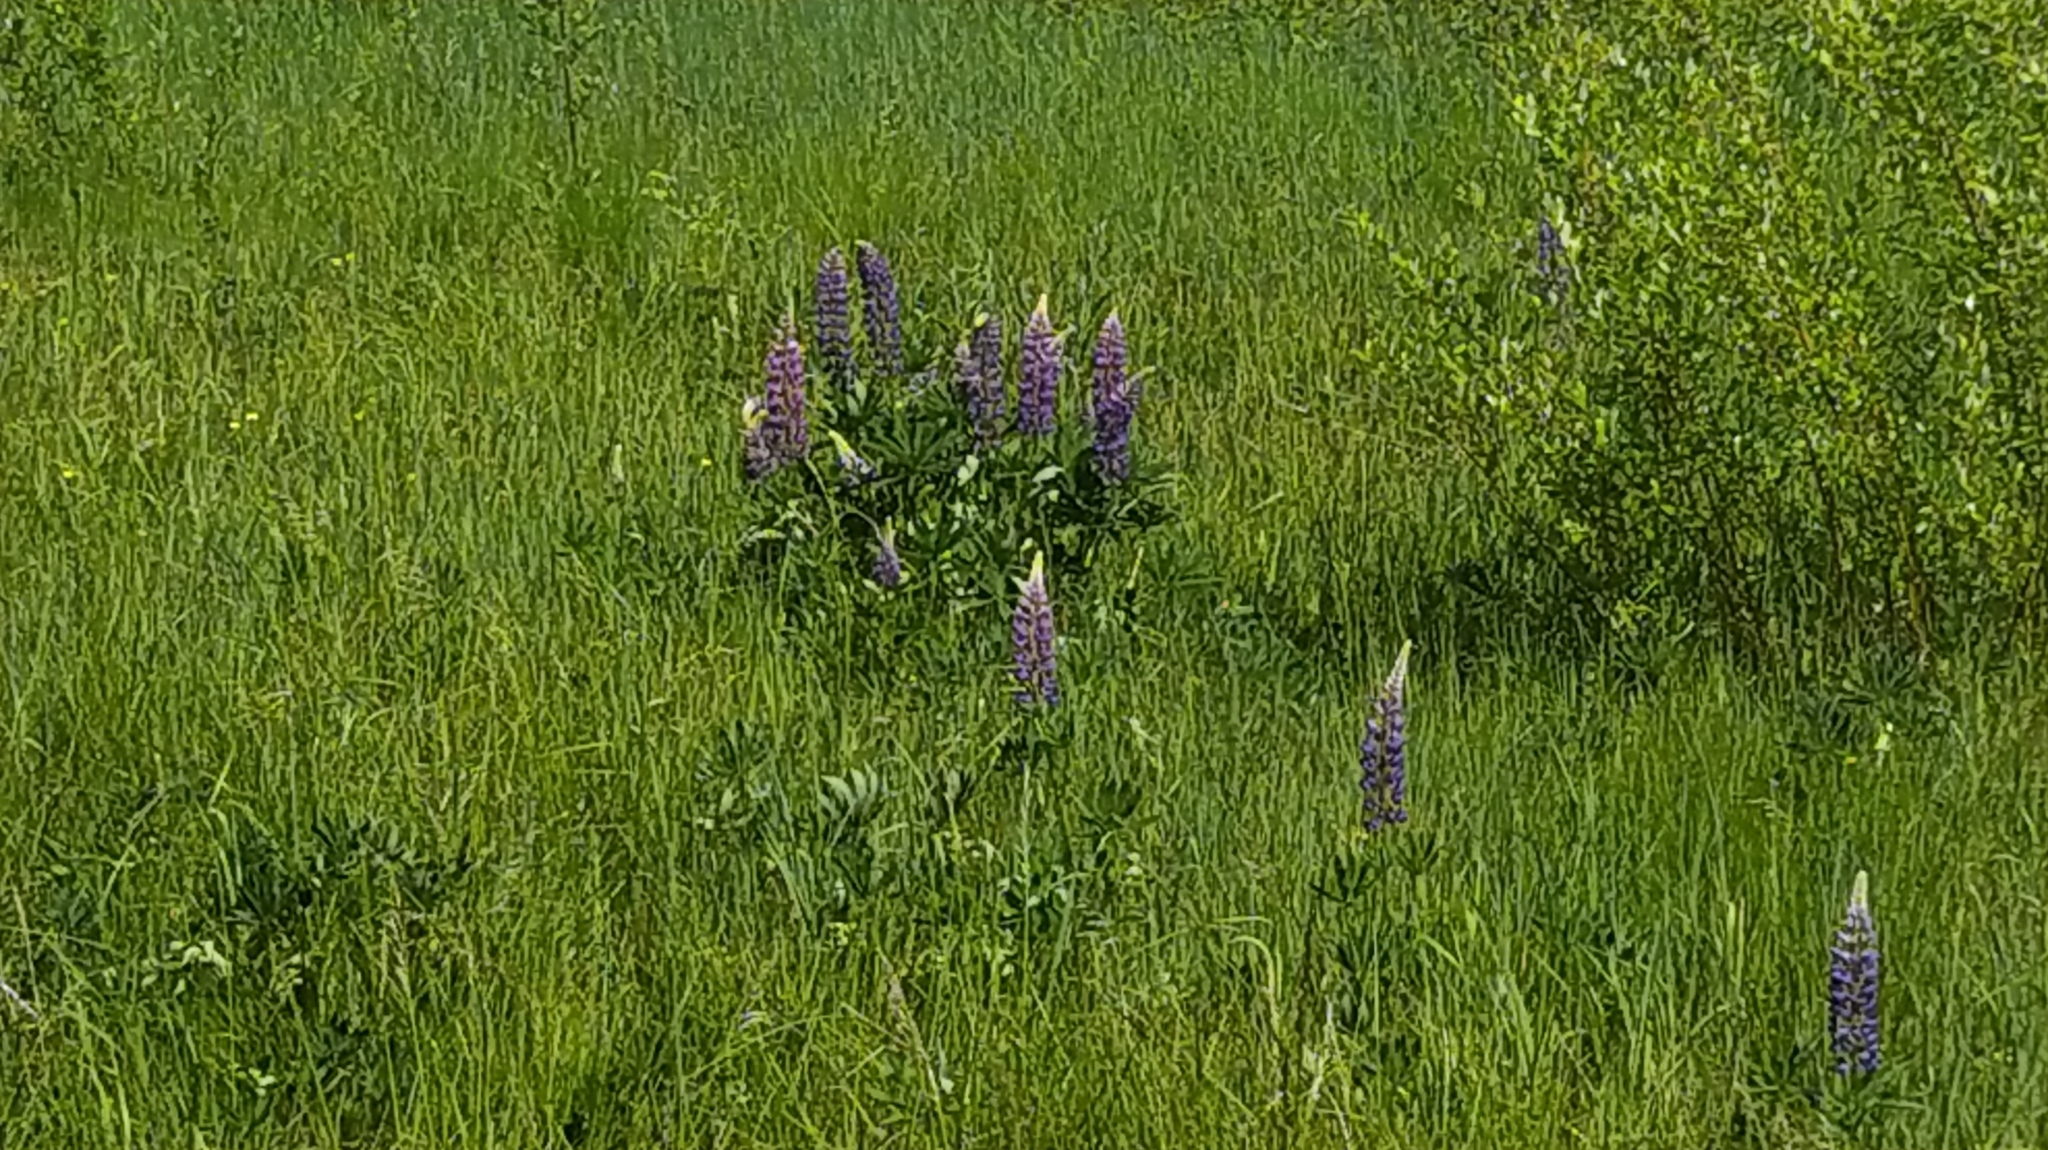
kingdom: Plantae
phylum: Tracheophyta
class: Magnoliopsida
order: Fabales
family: Fabaceae
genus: Lupinus
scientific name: Lupinus polyphyllus
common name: Garden lupin
